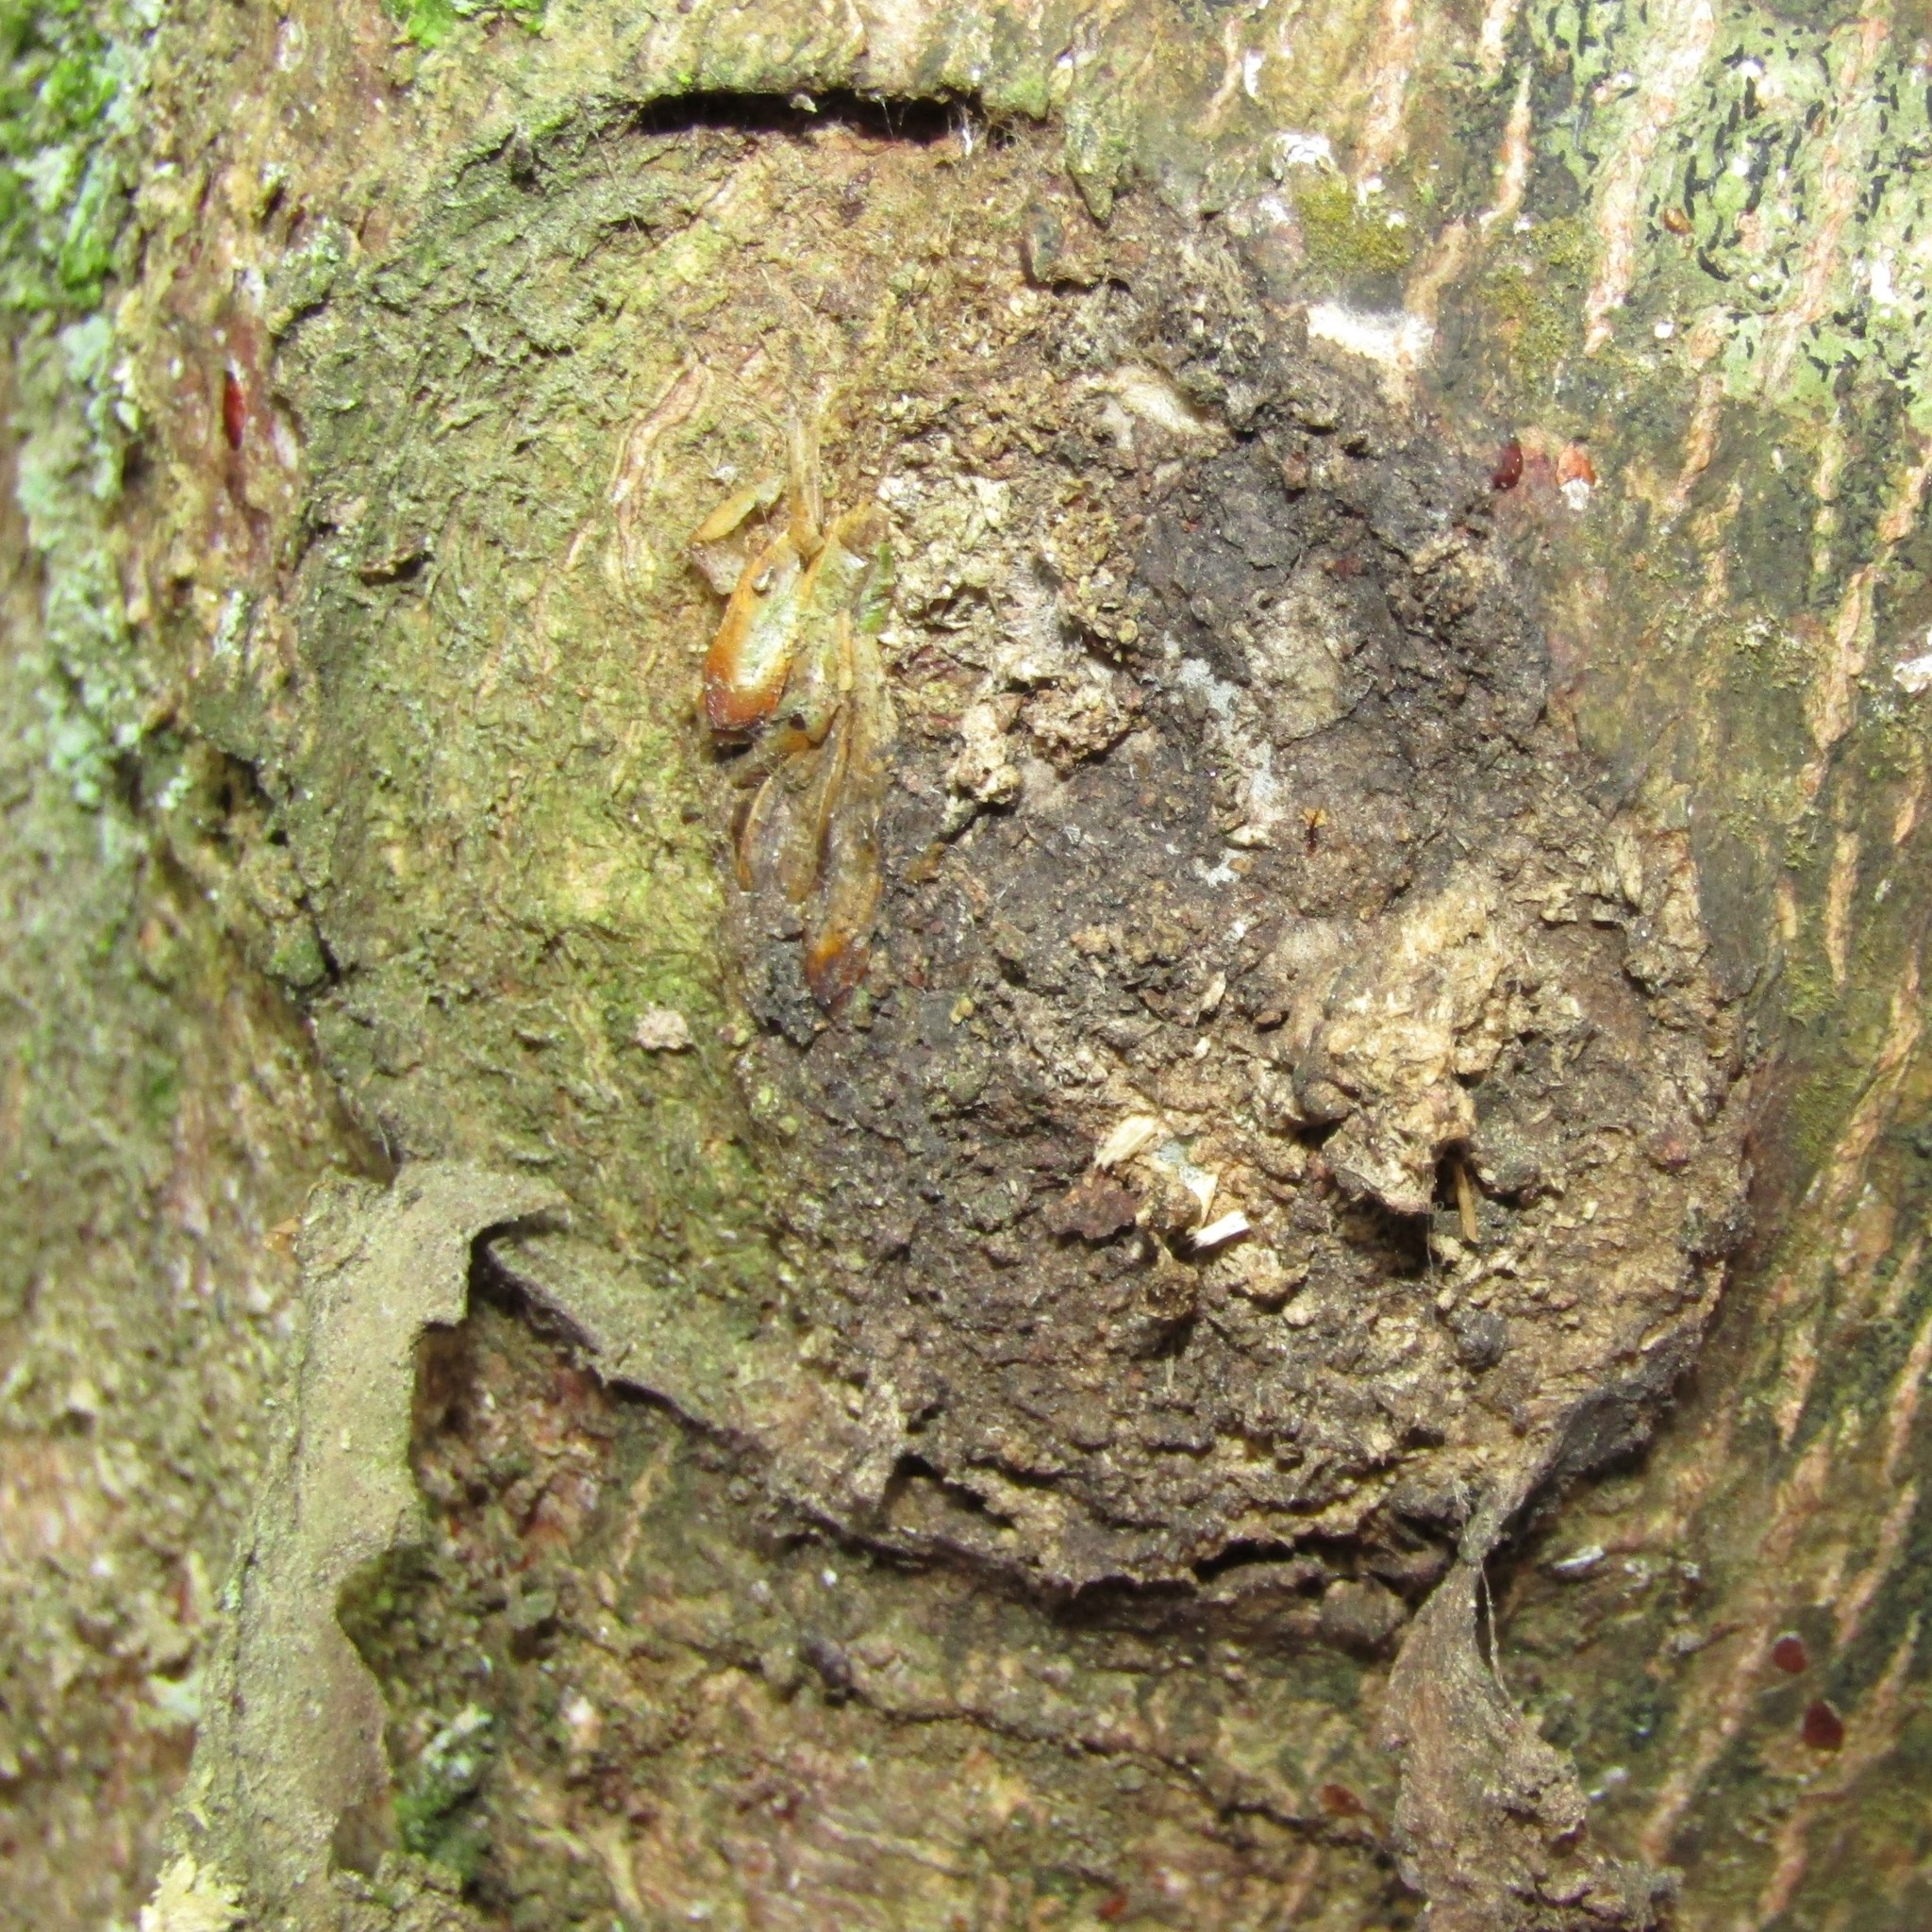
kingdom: Animalia
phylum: Arthropoda
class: Insecta
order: Lepidoptera
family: Hepialidae
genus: Aenetus
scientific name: Aenetus virescens
